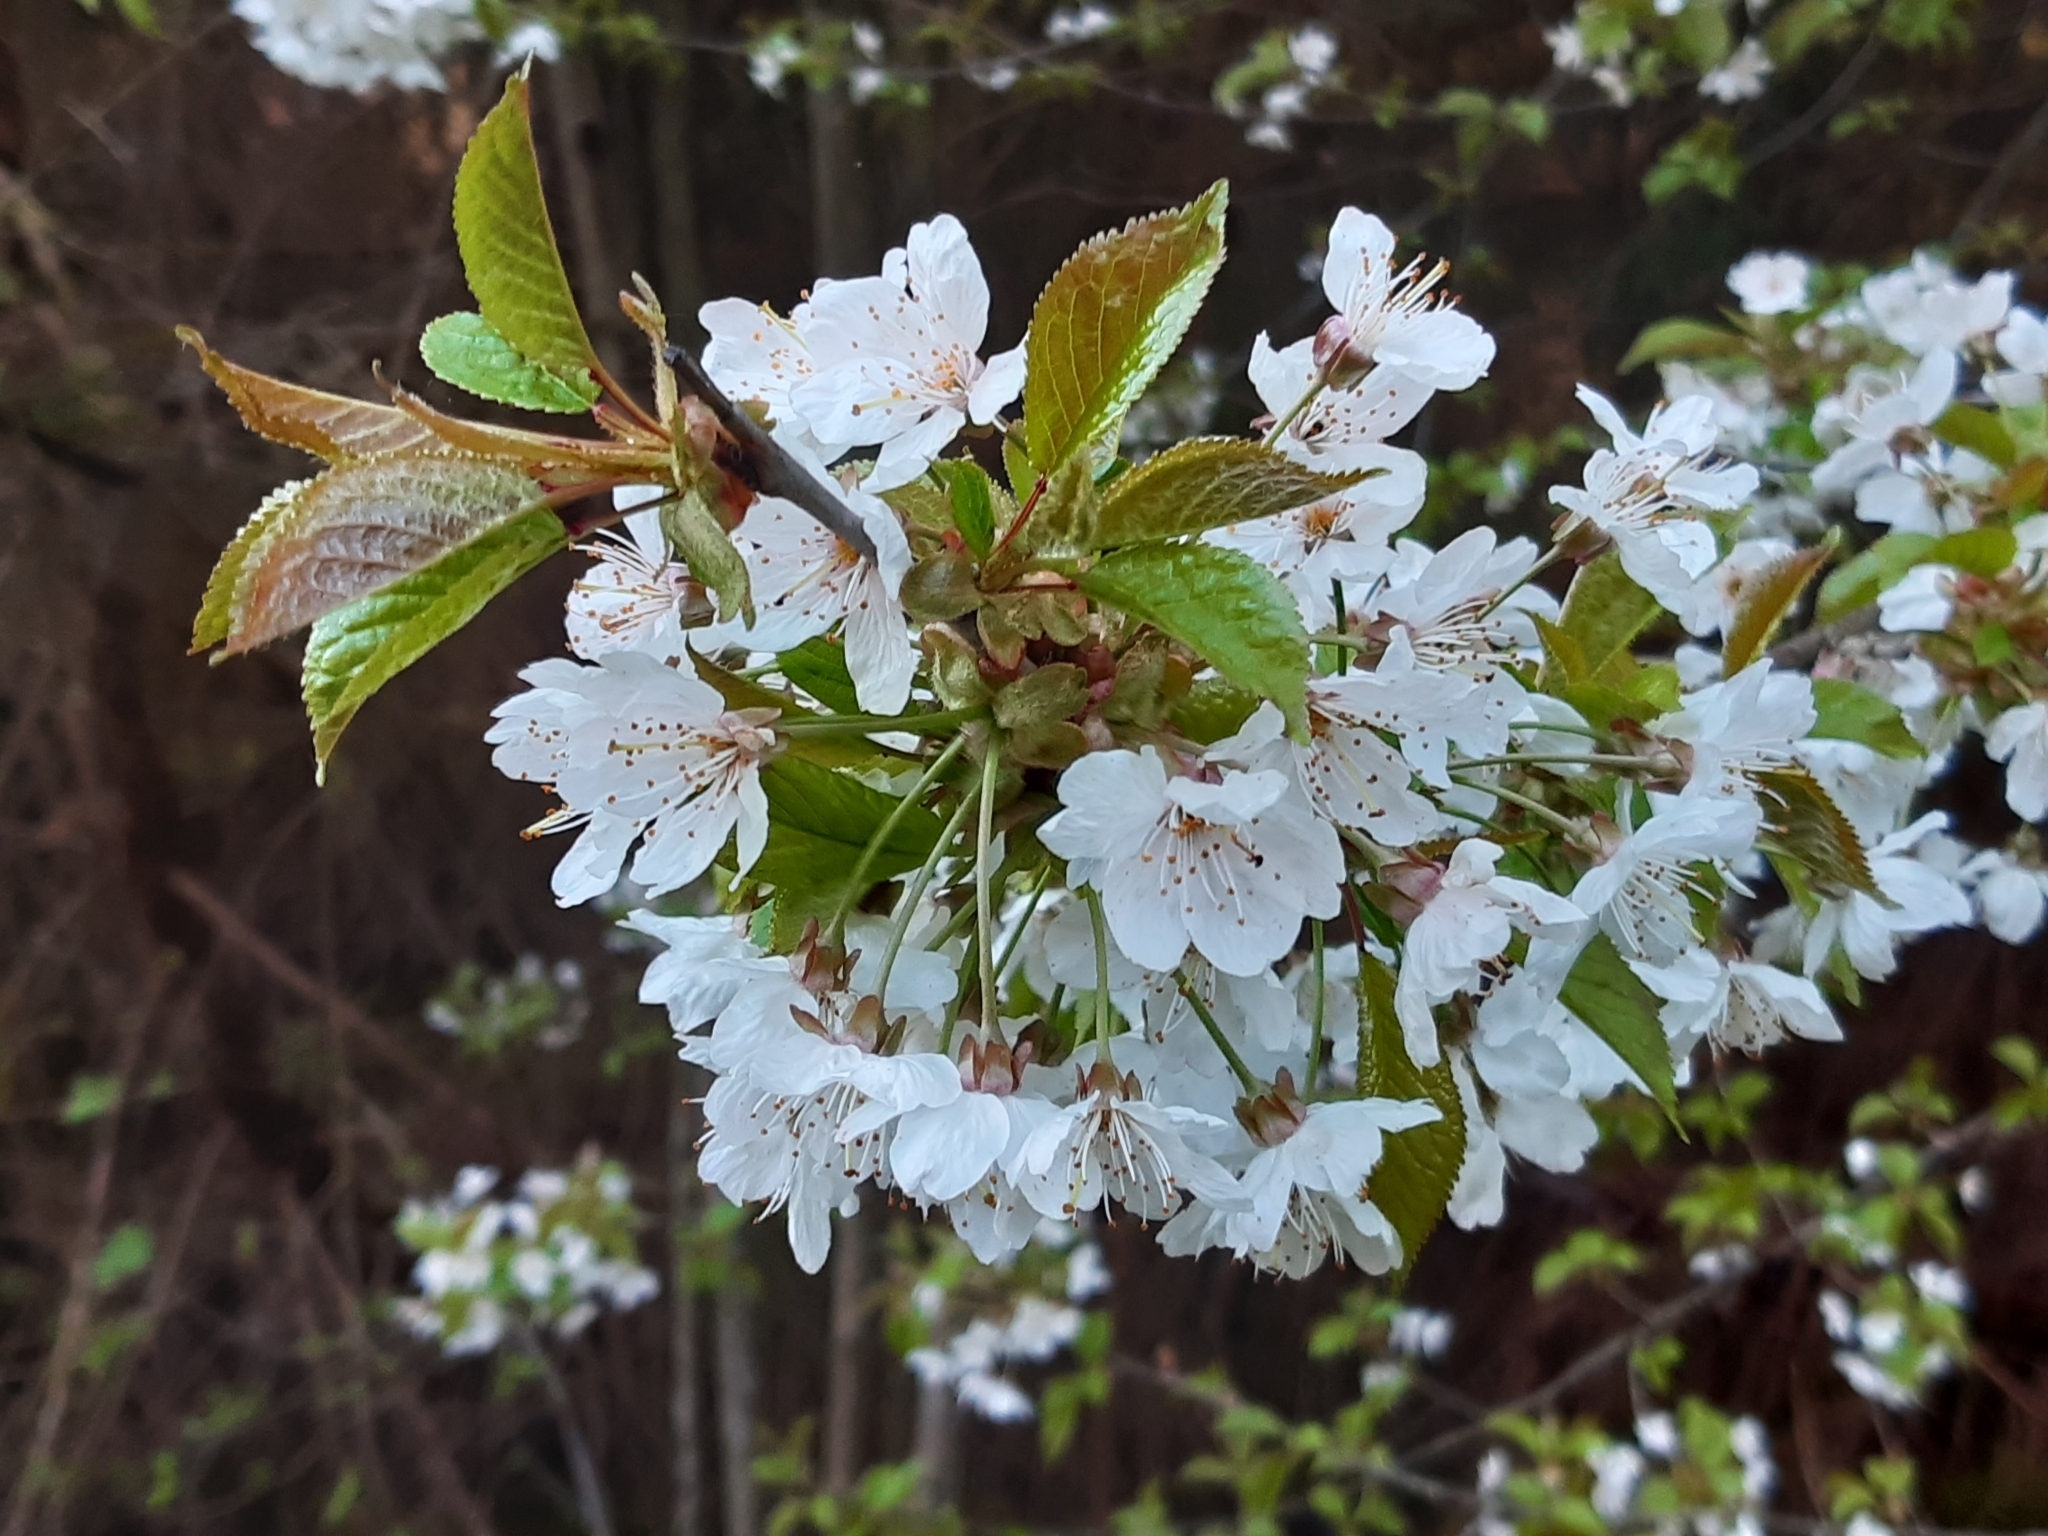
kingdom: Plantae
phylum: Tracheophyta
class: Magnoliopsida
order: Rosales
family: Rosaceae
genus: Prunus
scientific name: Prunus avium
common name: Sweet cherry
